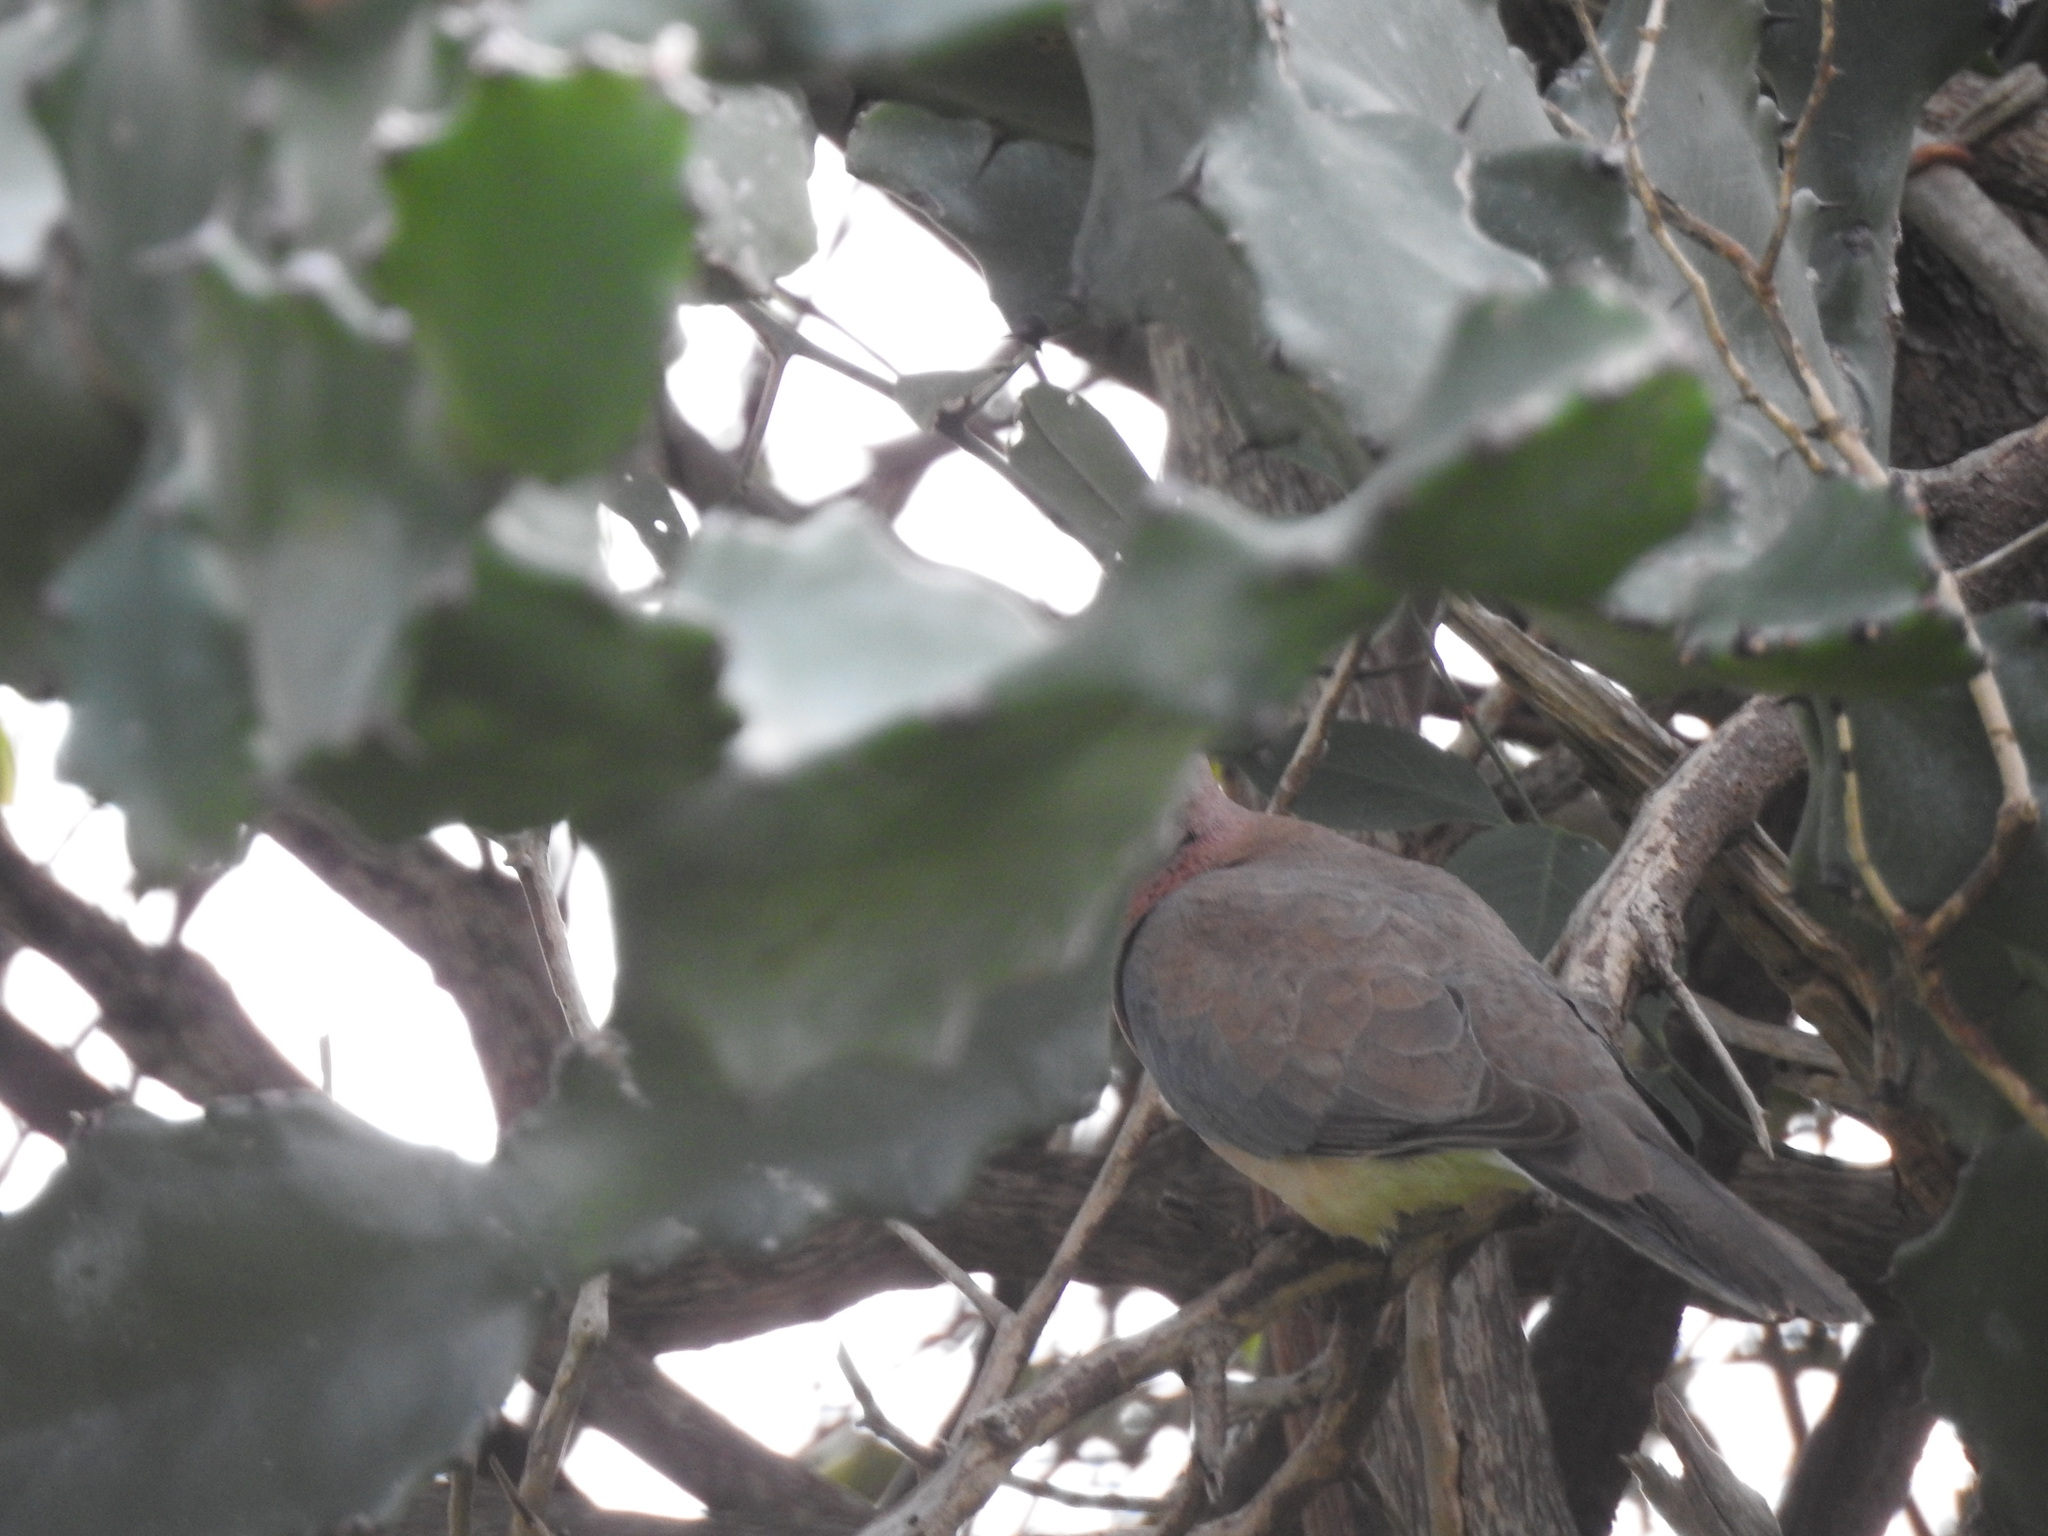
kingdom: Animalia
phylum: Chordata
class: Aves
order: Columbiformes
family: Columbidae
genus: Spilopelia
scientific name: Spilopelia senegalensis
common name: Laughing dove
